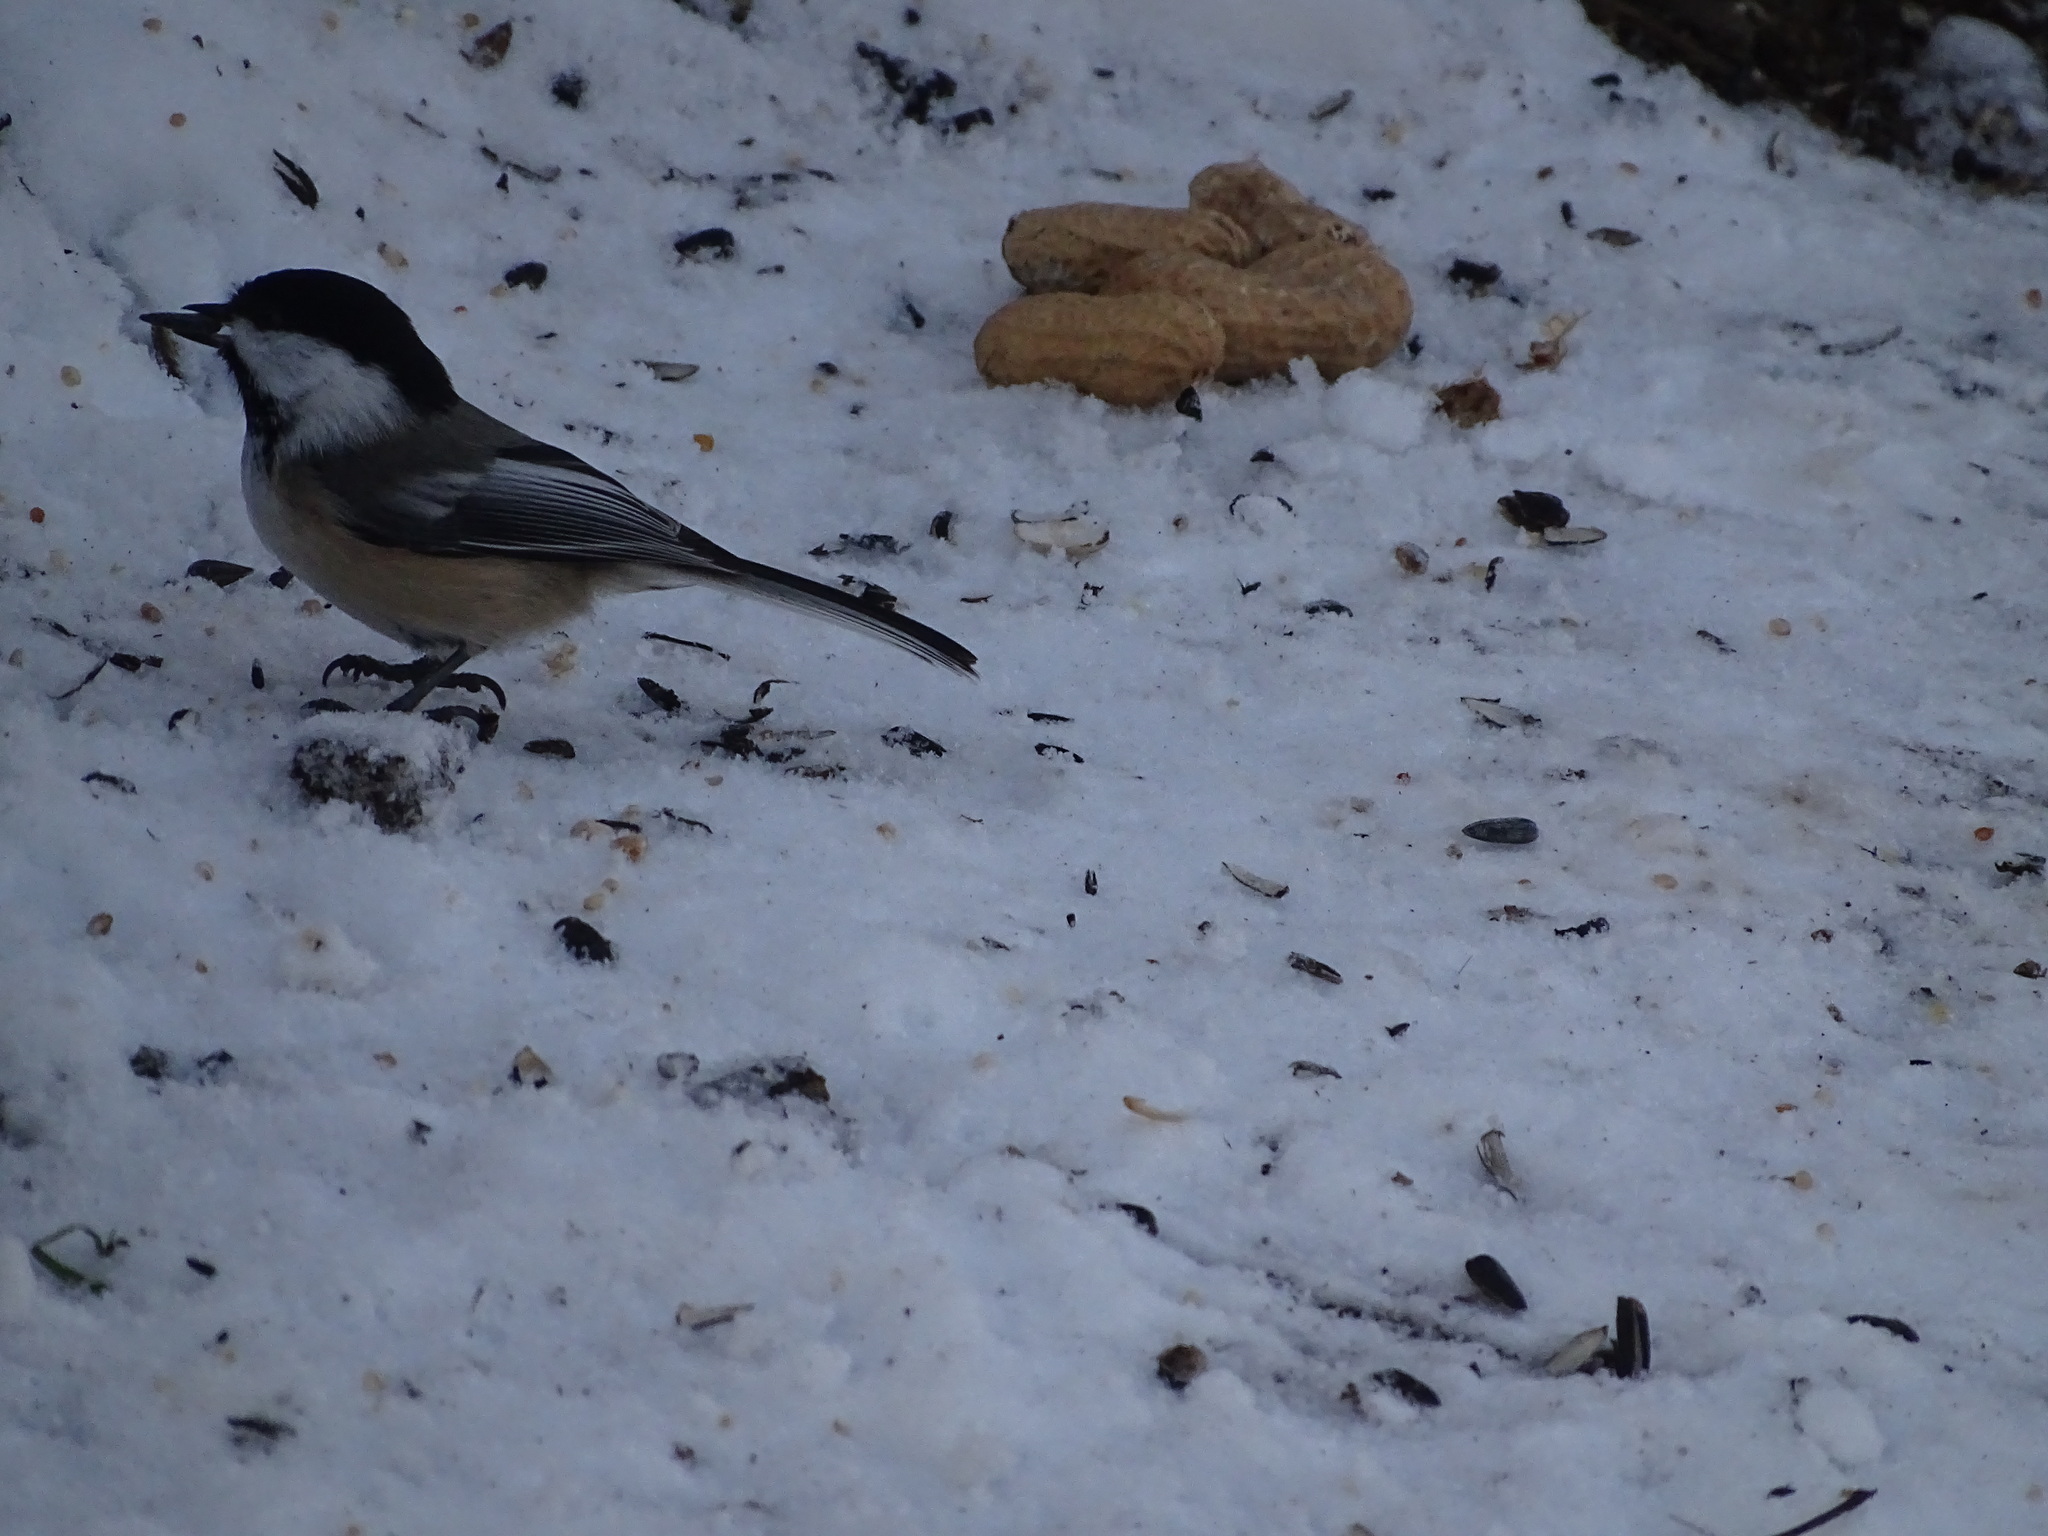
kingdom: Animalia
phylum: Chordata
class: Aves
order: Passeriformes
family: Paridae
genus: Poecile
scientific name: Poecile atricapillus
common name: Black-capped chickadee
